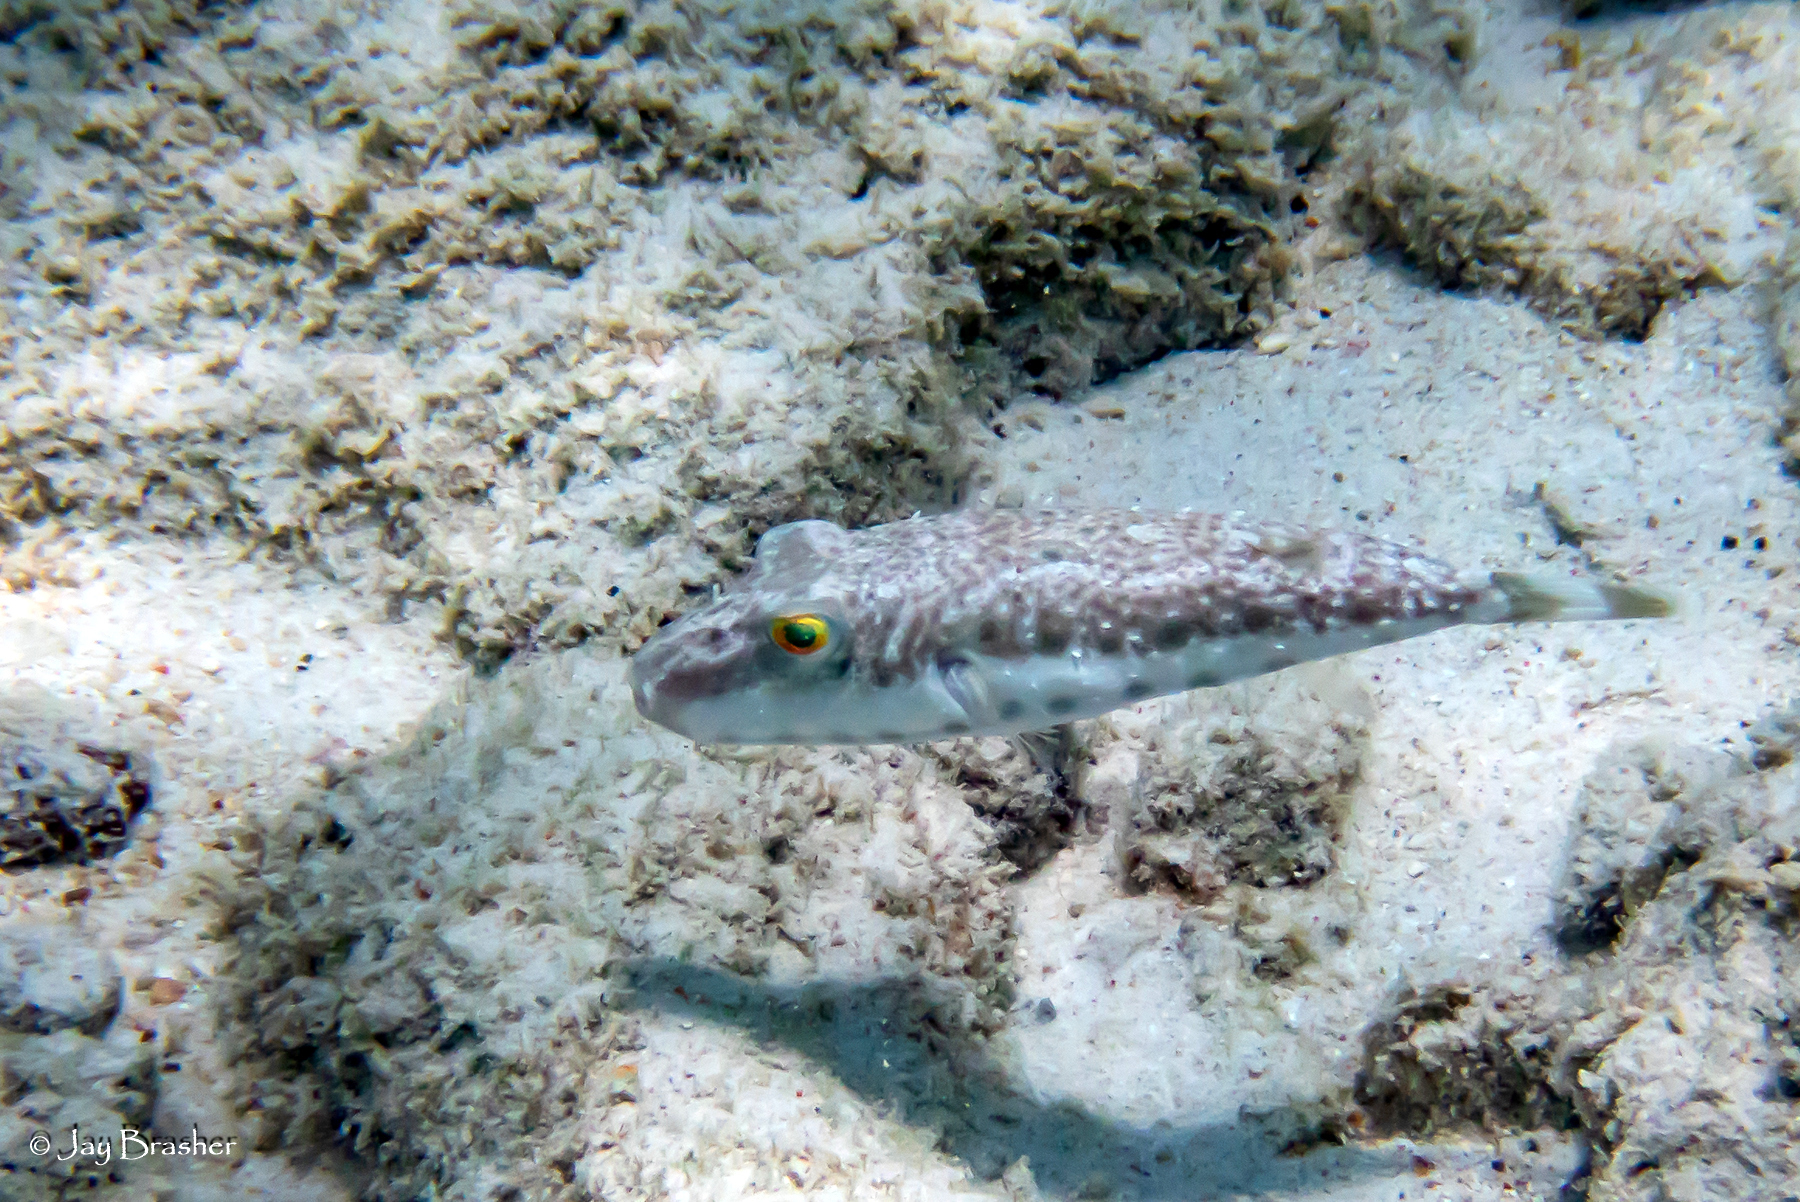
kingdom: Animalia
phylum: Chordata
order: Tetraodontiformes
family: Tetraodontidae
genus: Sphoeroides
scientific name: Sphoeroides spengleri
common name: Bandtail puffer
